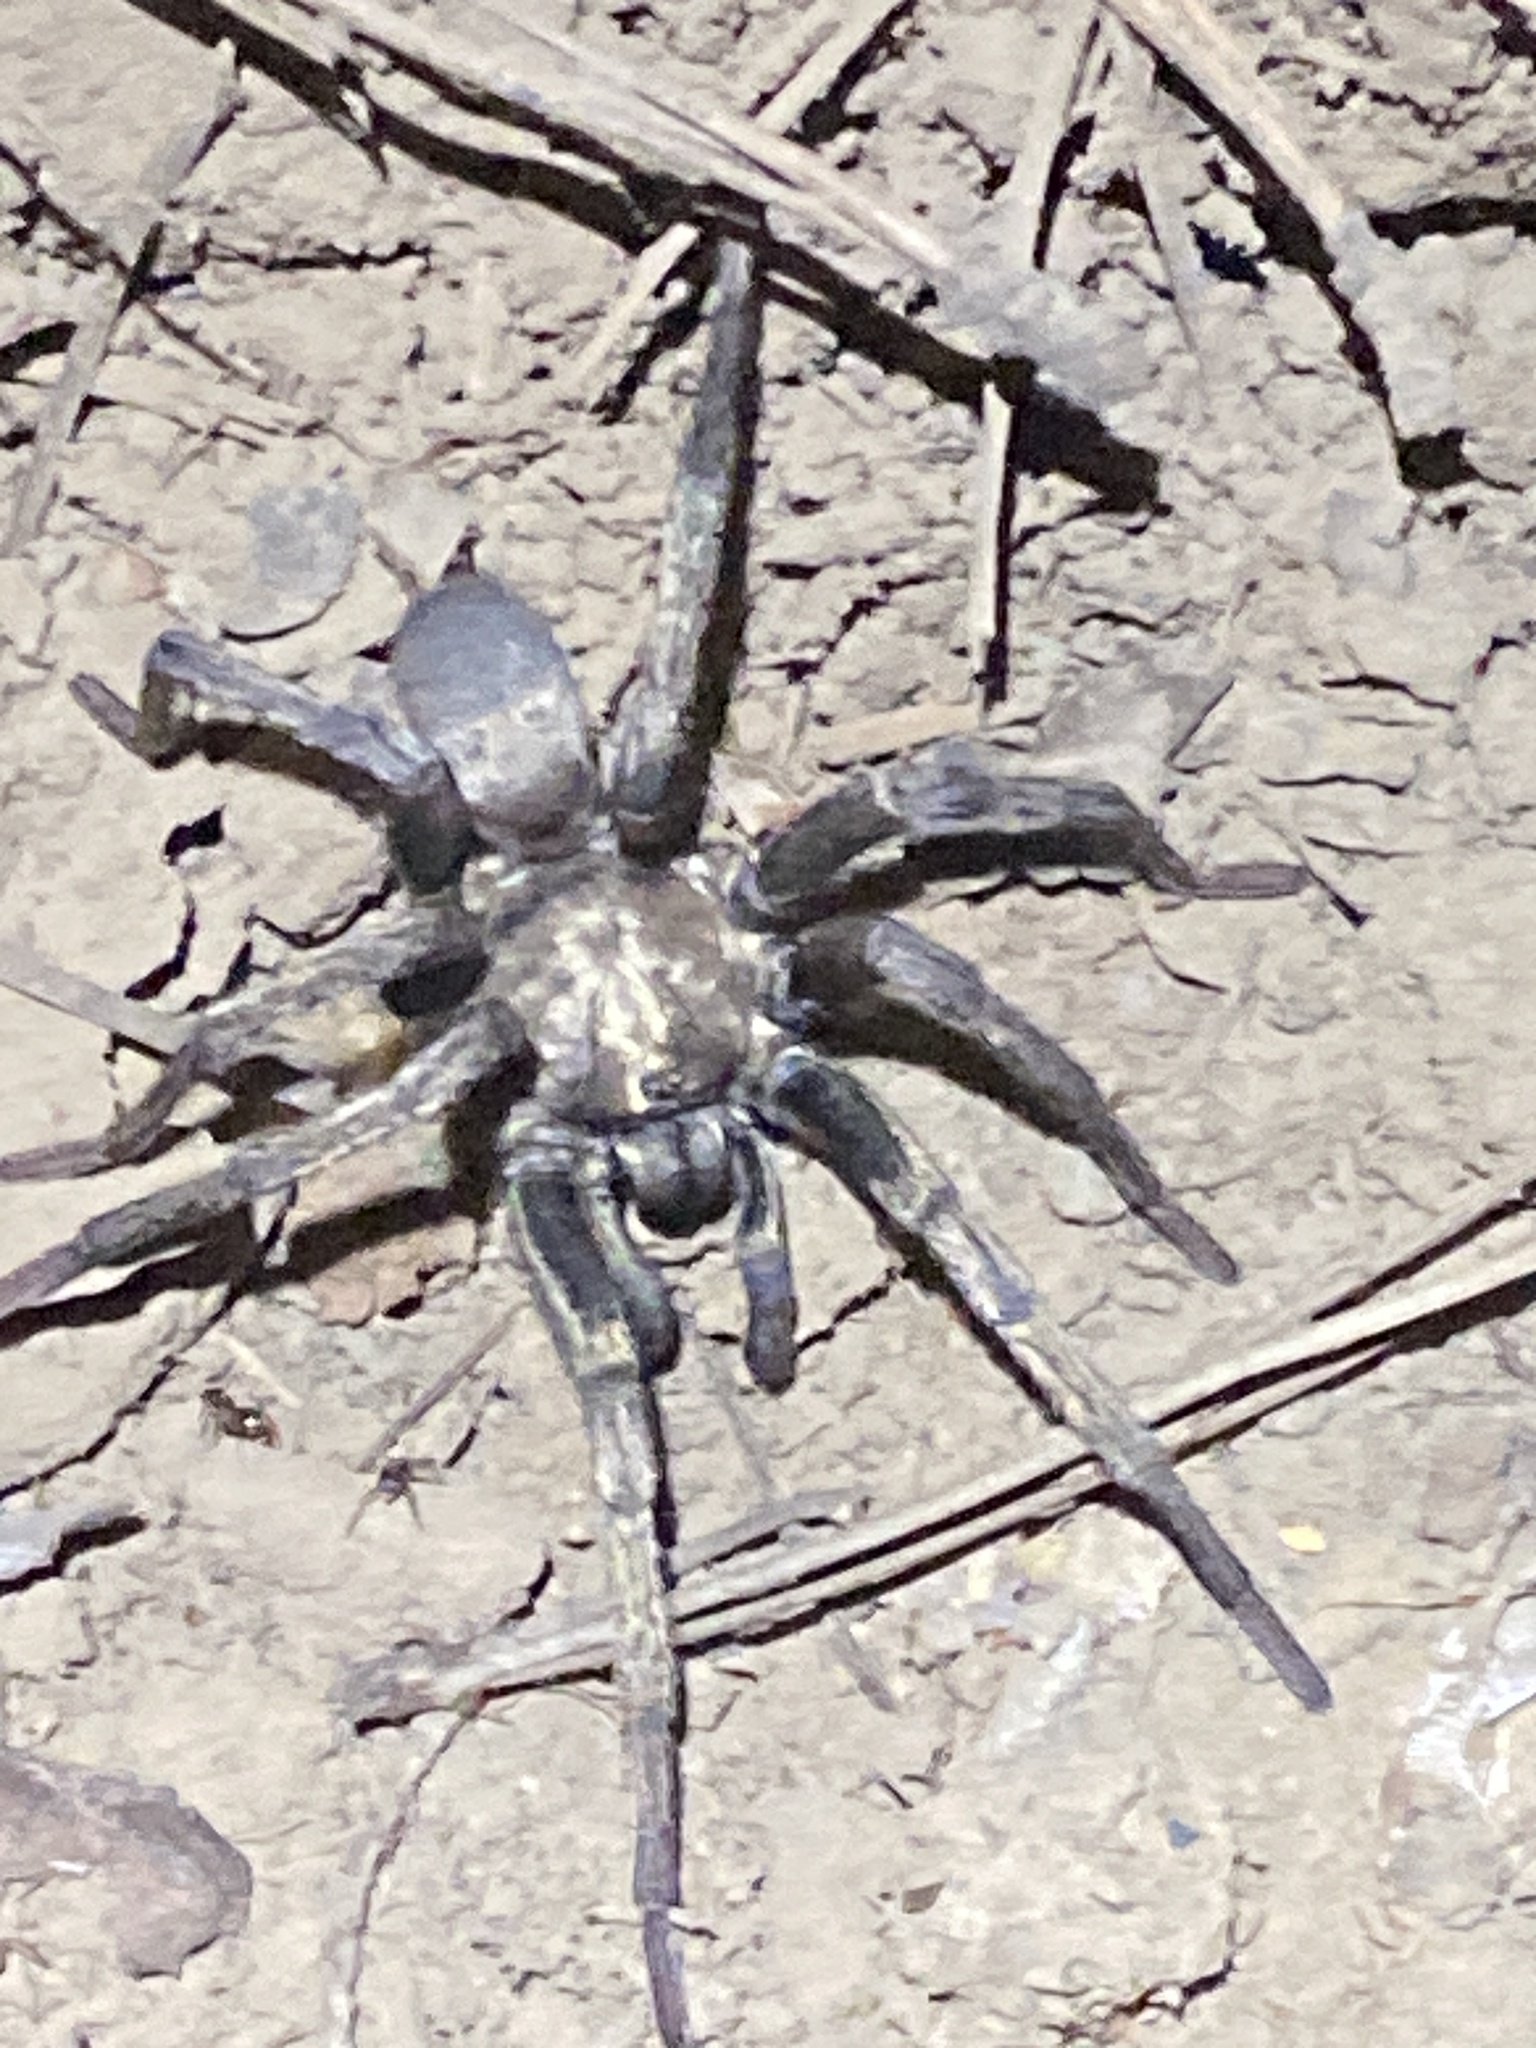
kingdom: Animalia
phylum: Arthropoda
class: Arachnida
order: Araneae
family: Nemesiidae
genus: Calisoga
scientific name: Calisoga longitarsis
